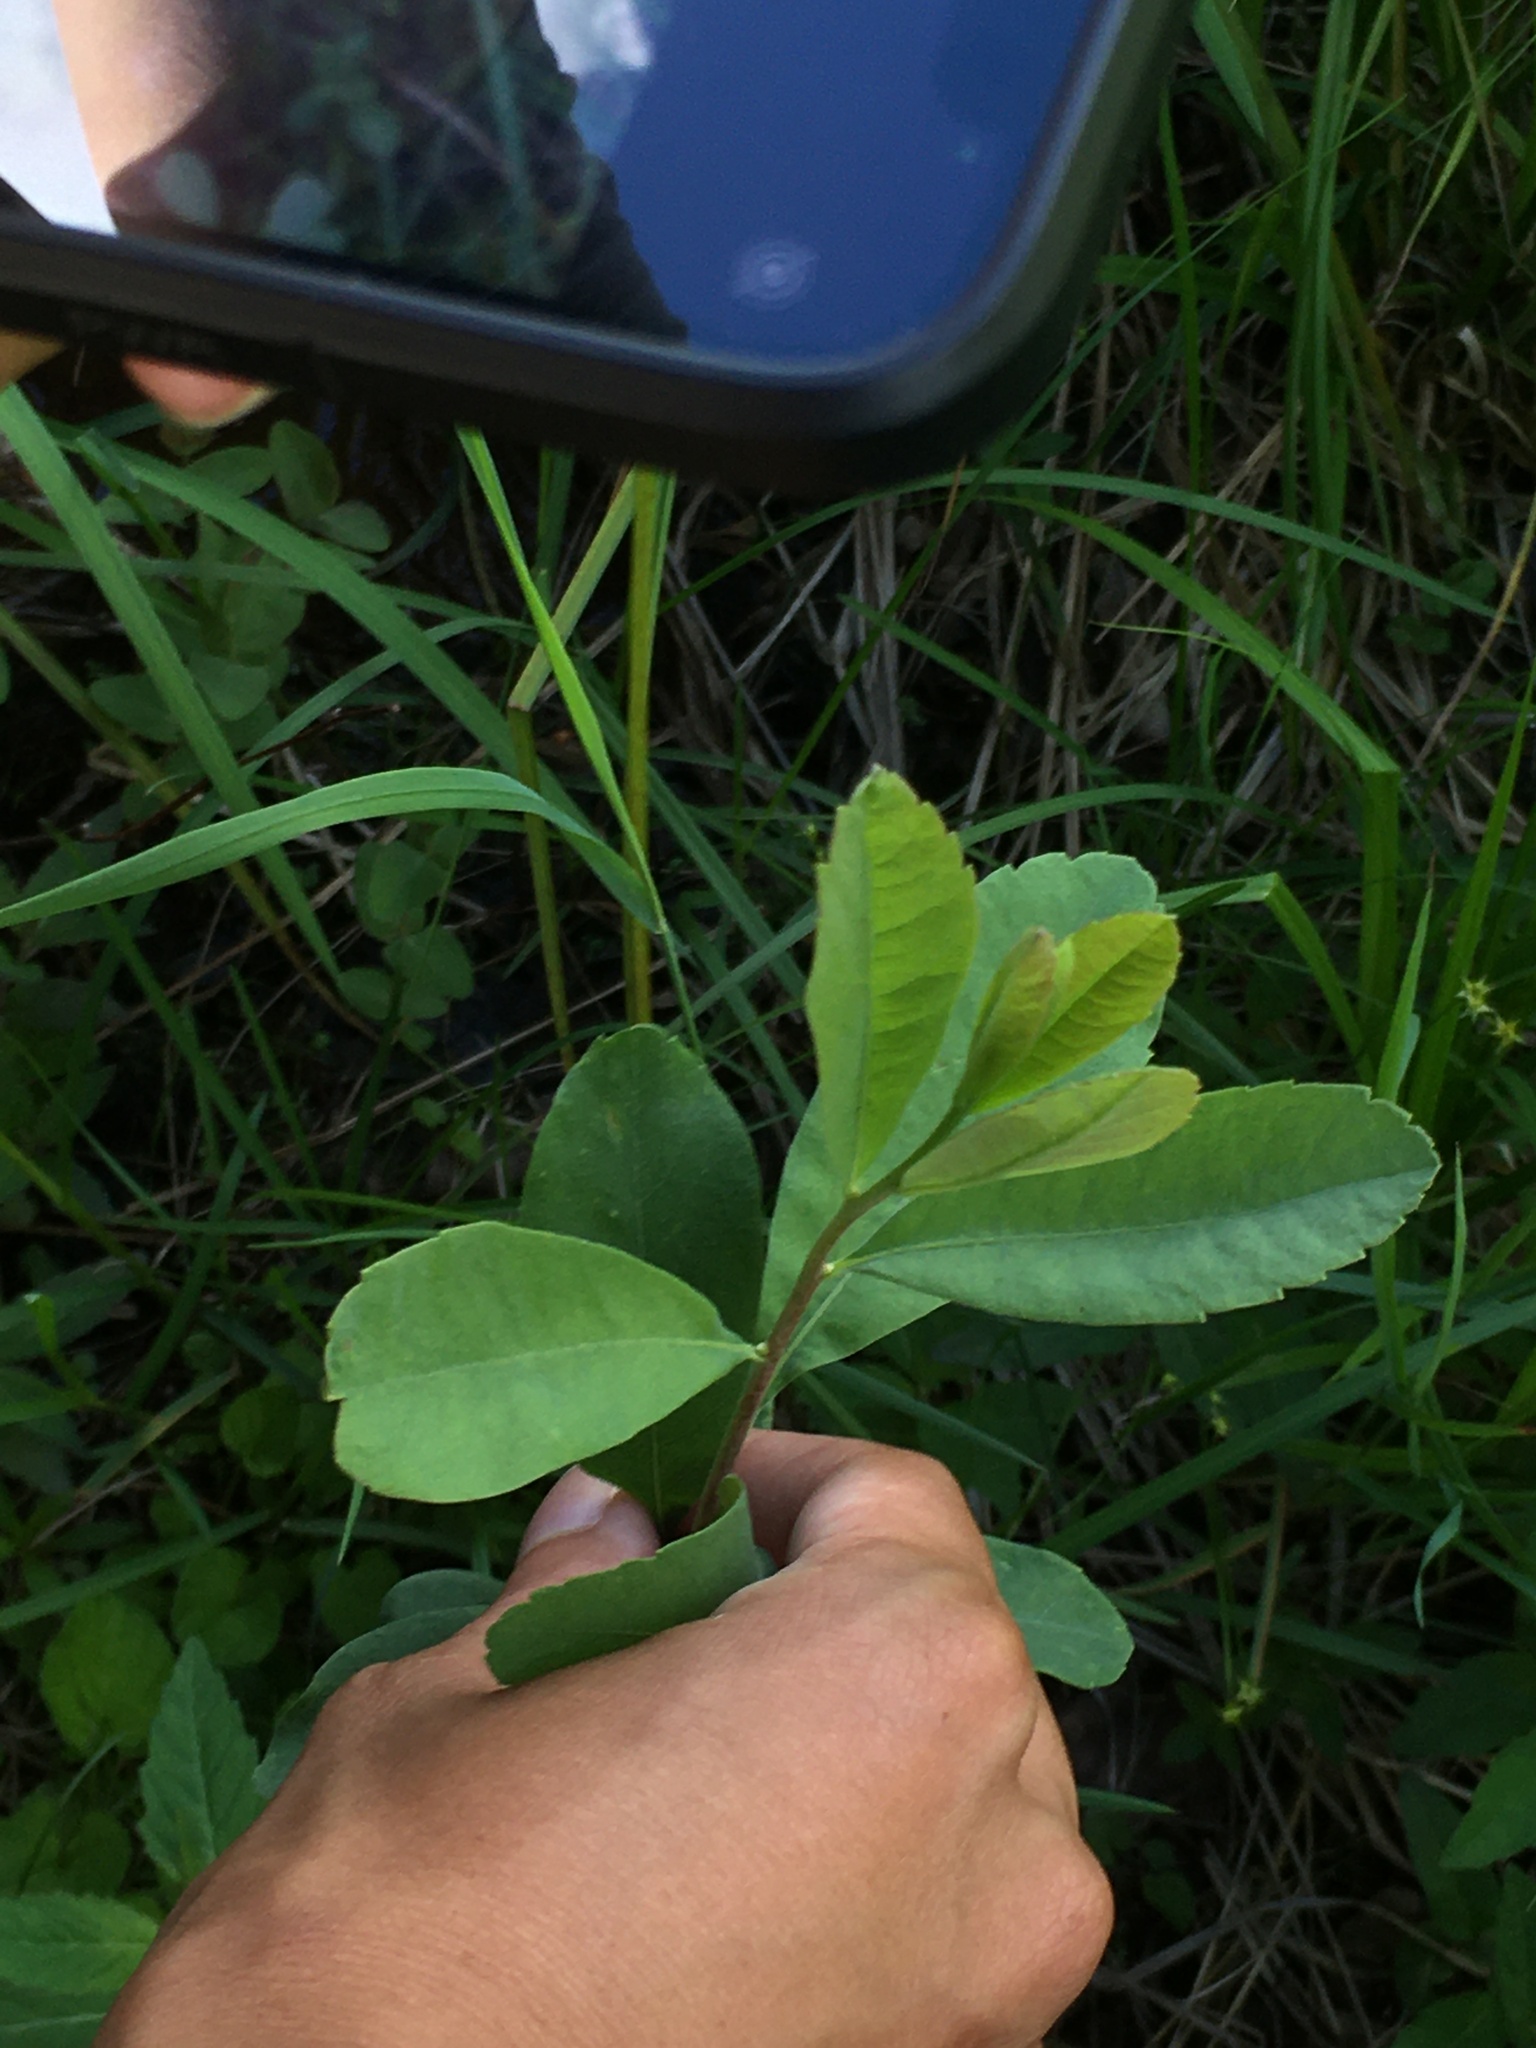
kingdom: Plantae
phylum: Tracheophyta
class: Magnoliopsida
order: Fagales
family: Myricaceae
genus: Myrica
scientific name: Myrica gale
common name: Sweet gale
